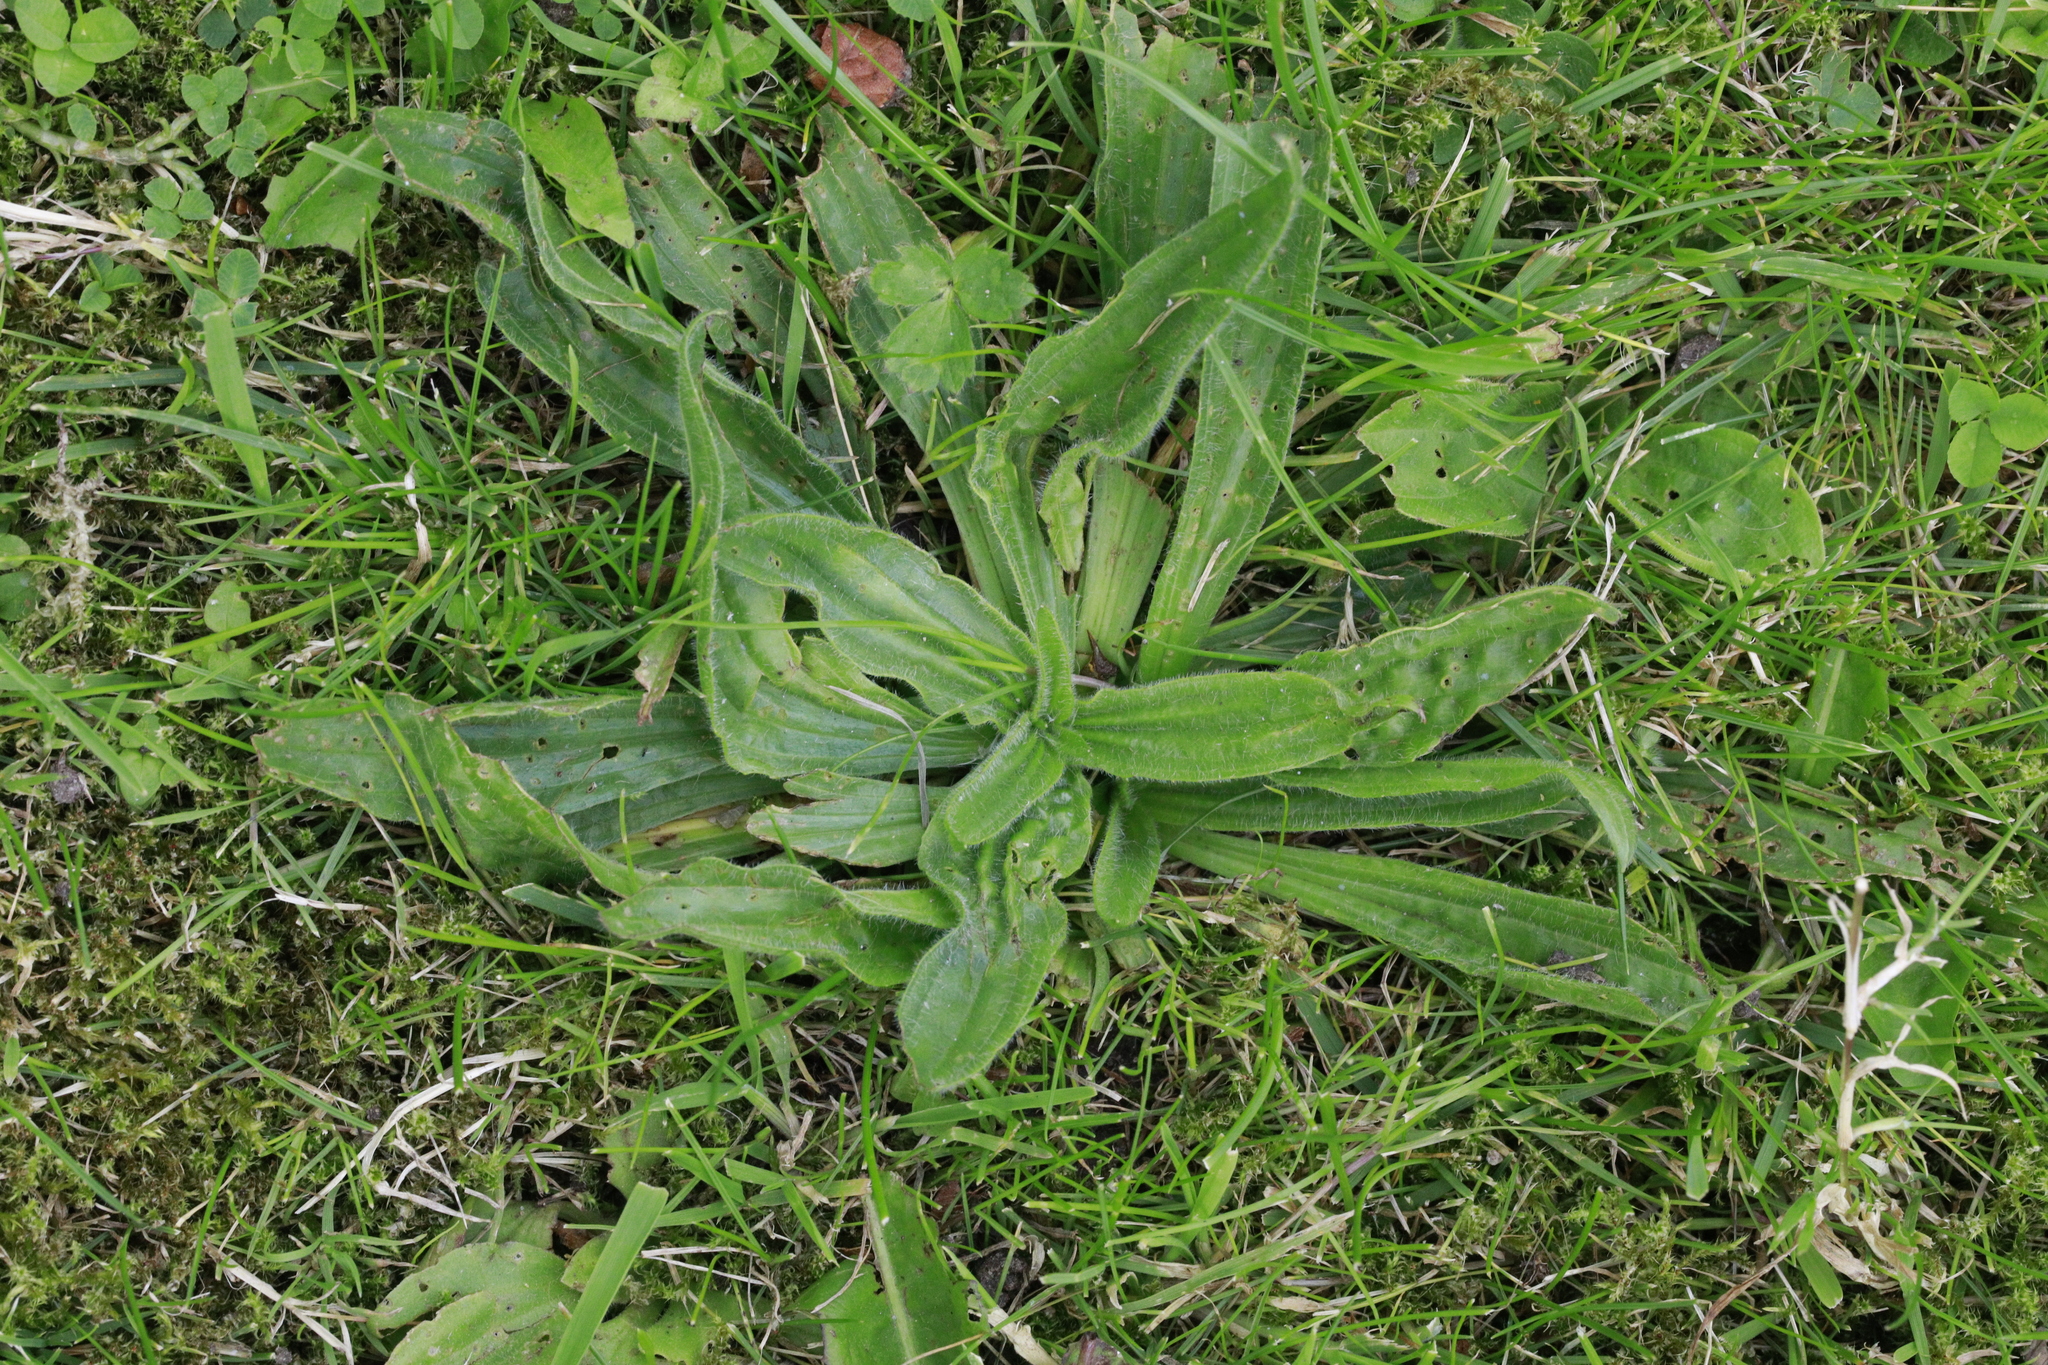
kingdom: Plantae
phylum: Tracheophyta
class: Magnoliopsida
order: Lamiales
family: Plantaginaceae
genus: Plantago
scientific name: Plantago lanceolata
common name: Ribwort plantain
